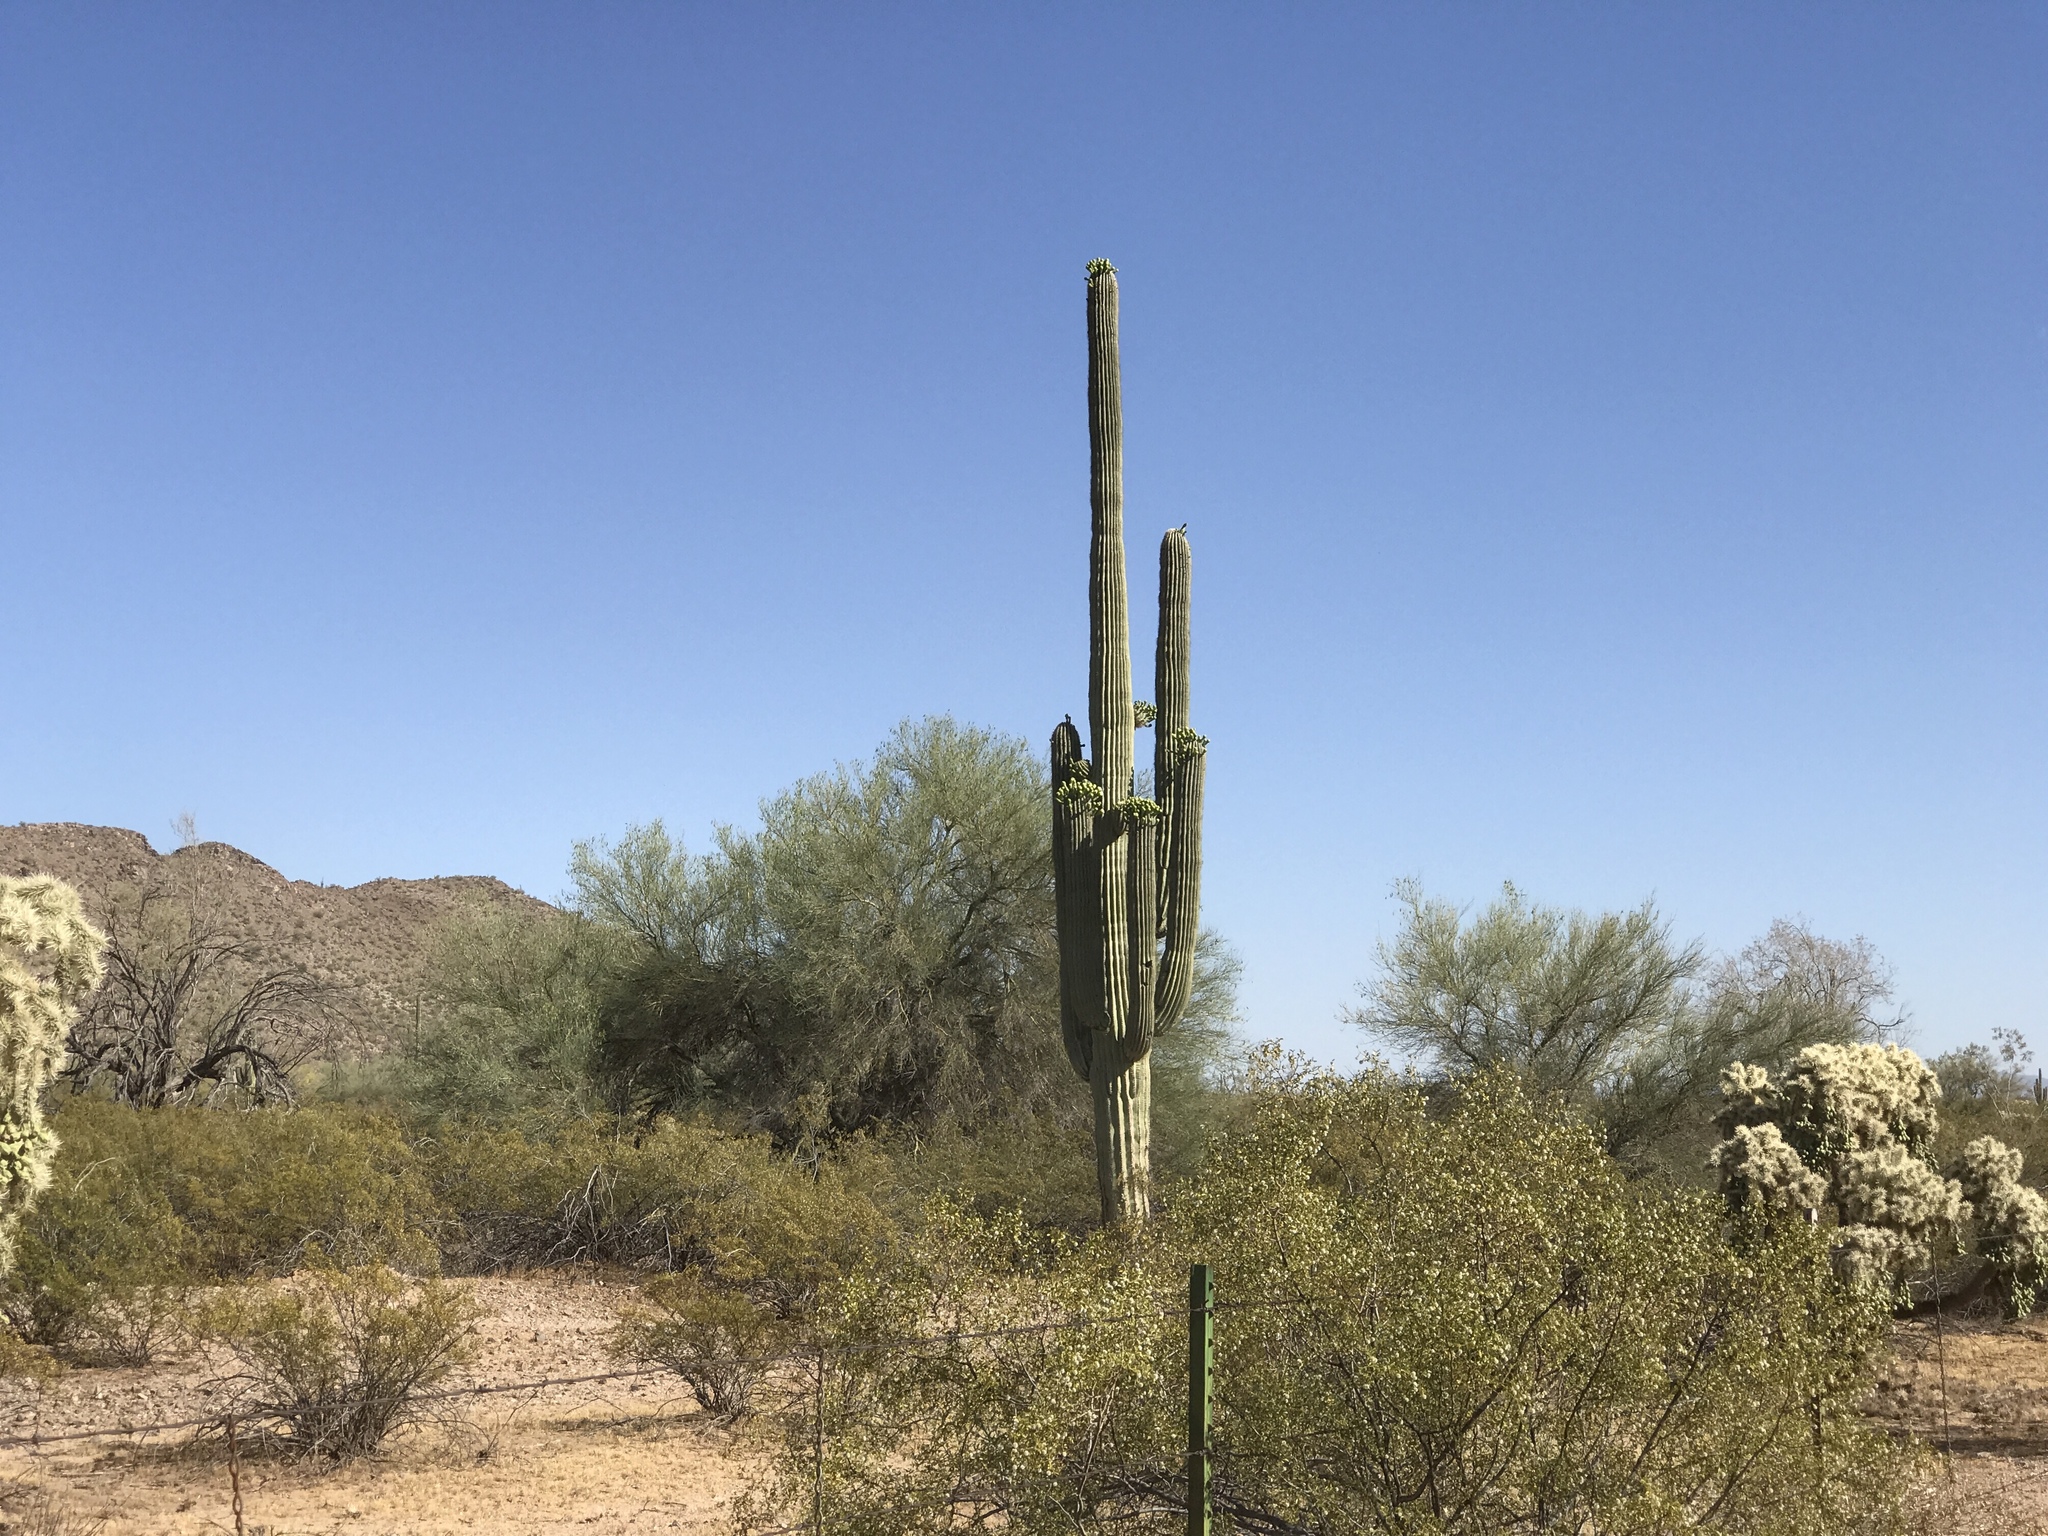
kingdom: Plantae
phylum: Tracheophyta
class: Magnoliopsida
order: Caryophyllales
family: Cactaceae
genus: Carnegiea
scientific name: Carnegiea gigantea
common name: Saguaro
